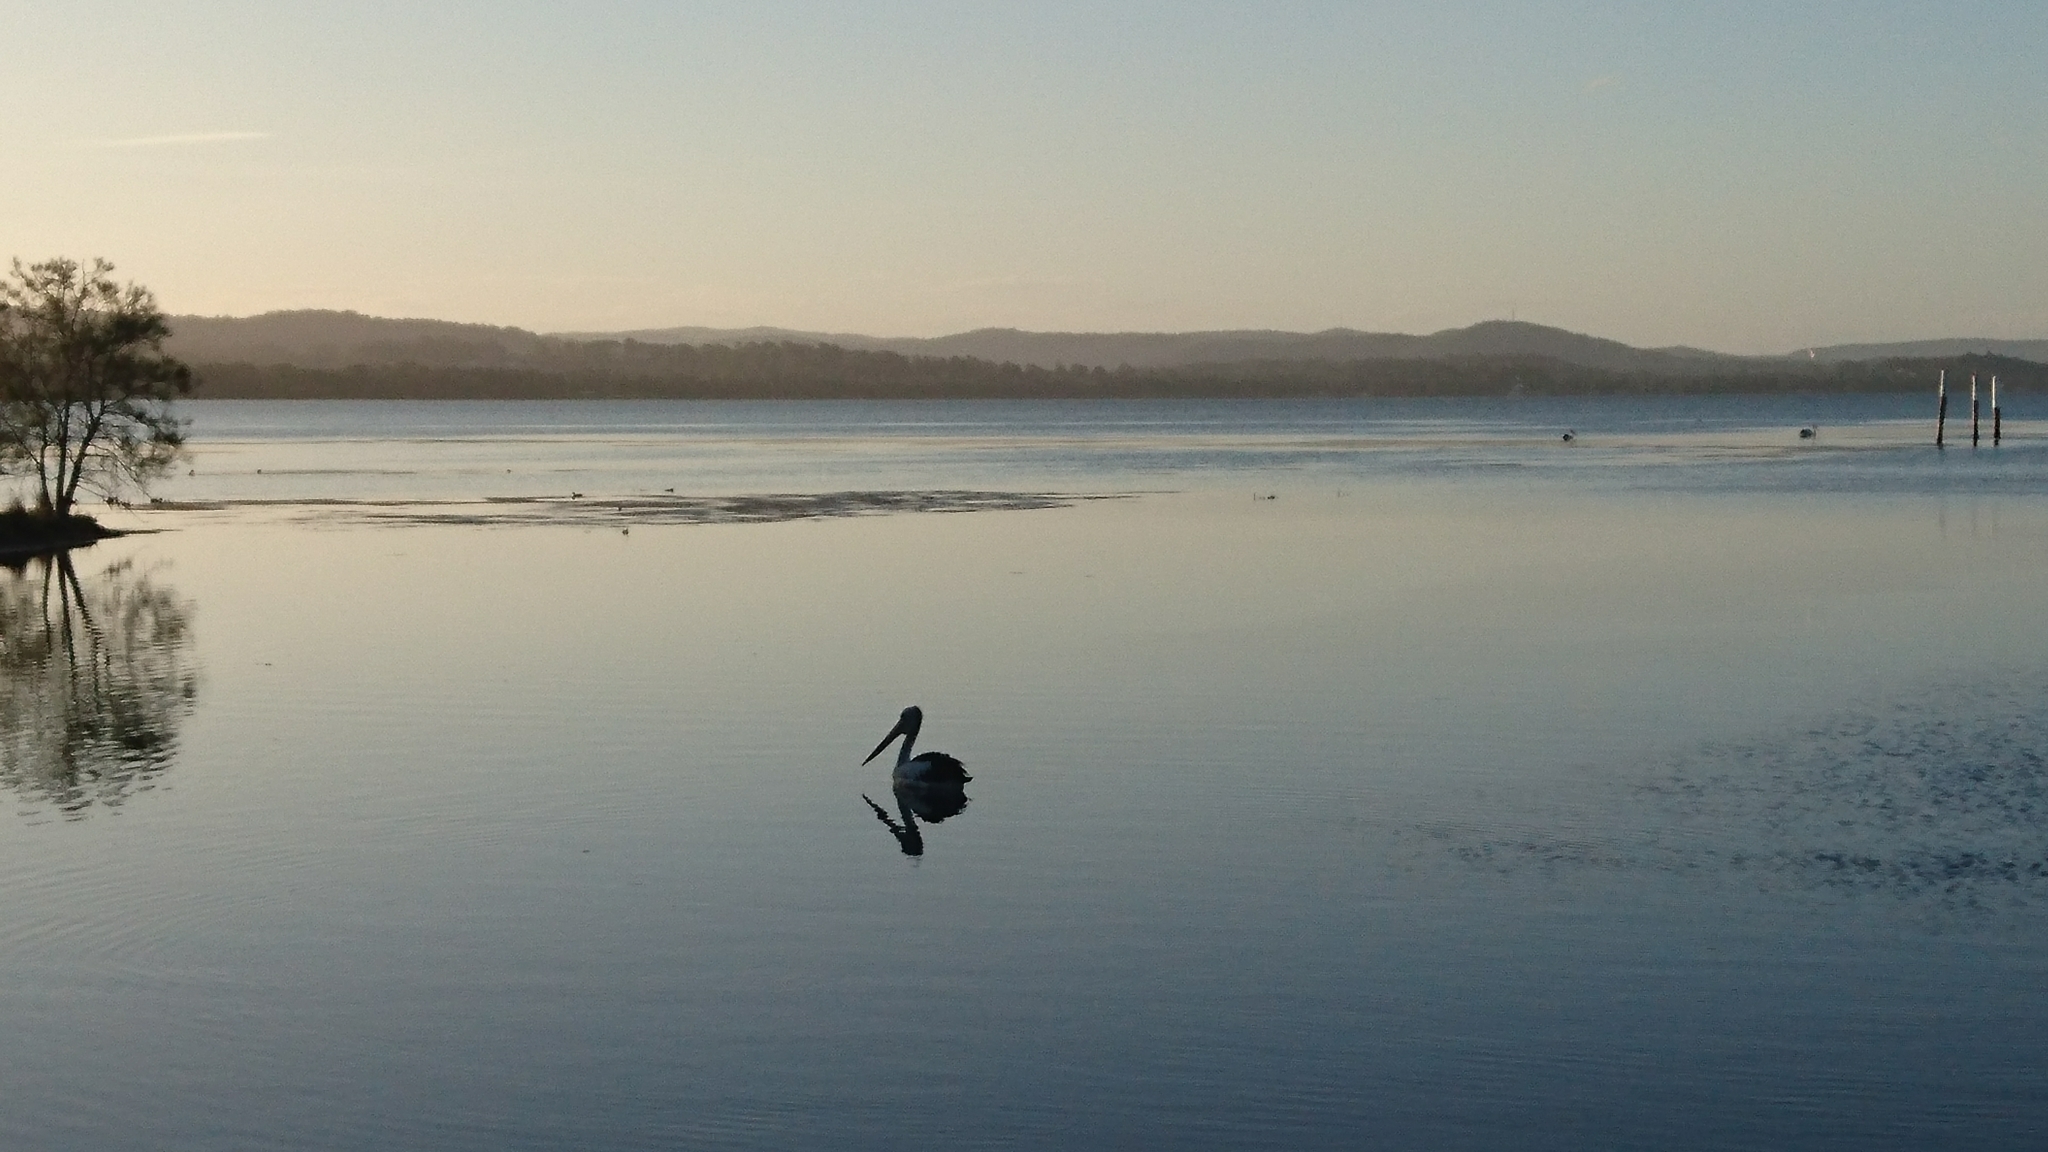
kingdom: Animalia
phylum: Chordata
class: Aves
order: Pelecaniformes
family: Pelecanidae
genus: Pelecanus
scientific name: Pelecanus conspicillatus
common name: Australian pelican
